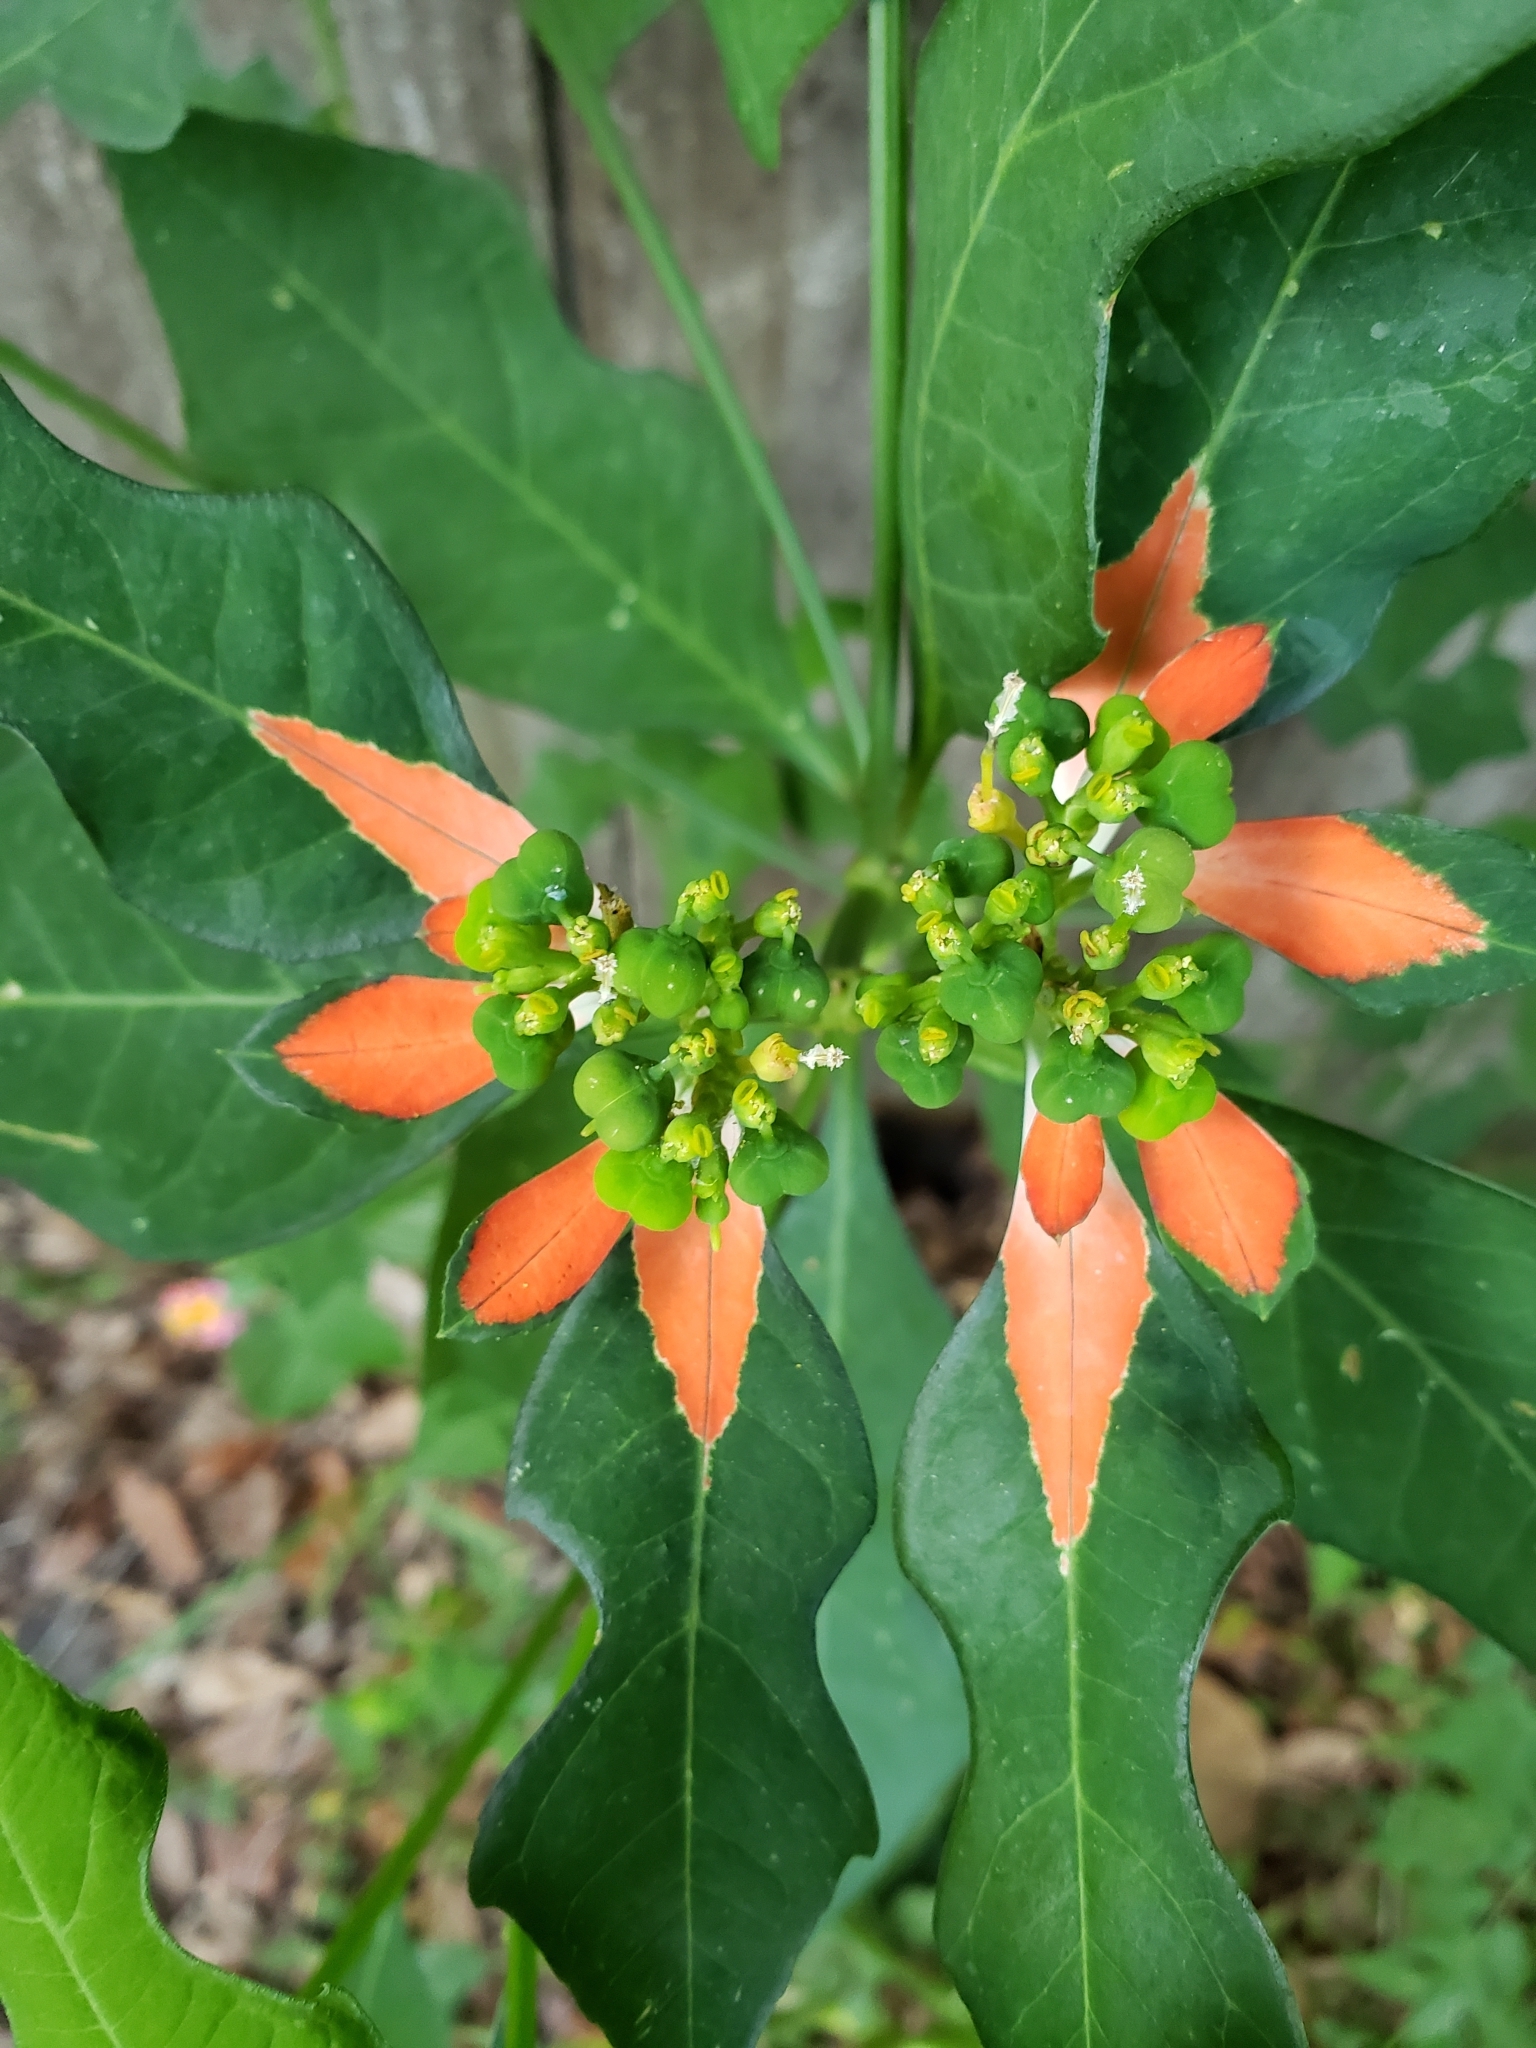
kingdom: Plantae
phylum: Tracheophyta
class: Magnoliopsida
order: Malpighiales
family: Euphorbiaceae
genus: Euphorbia
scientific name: Euphorbia heterophylla
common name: Mexican fireplant
